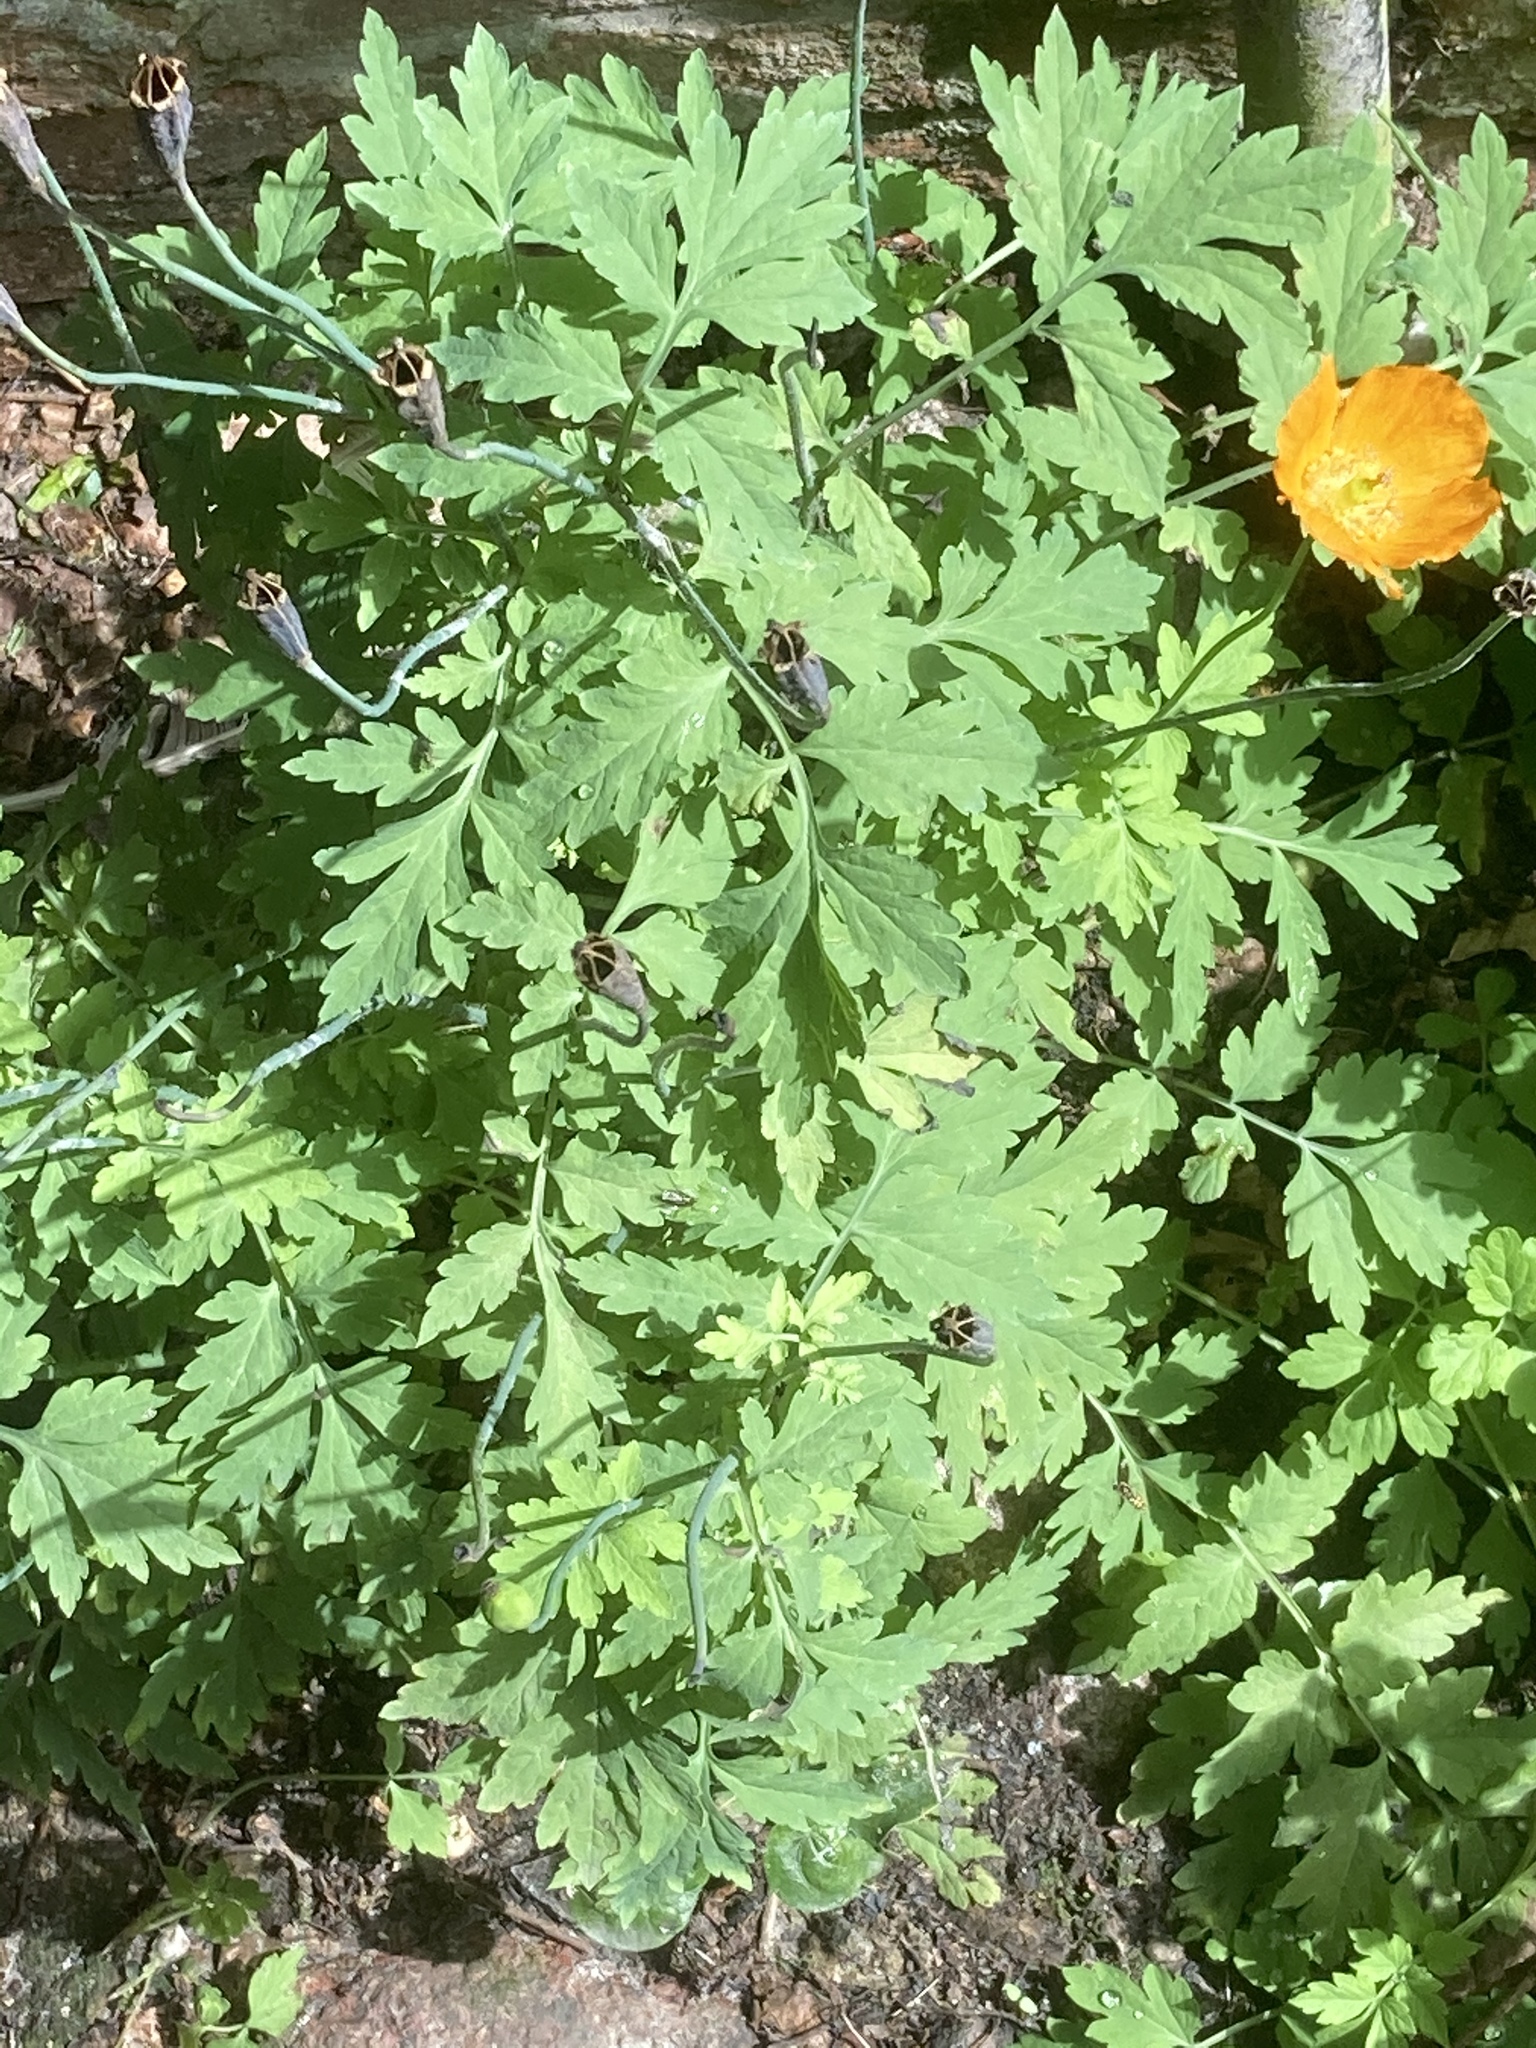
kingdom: Plantae
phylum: Tracheophyta
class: Magnoliopsida
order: Ranunculales
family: Papaveraceae
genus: Papaver
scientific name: Papaver cambricum
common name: Poppy
